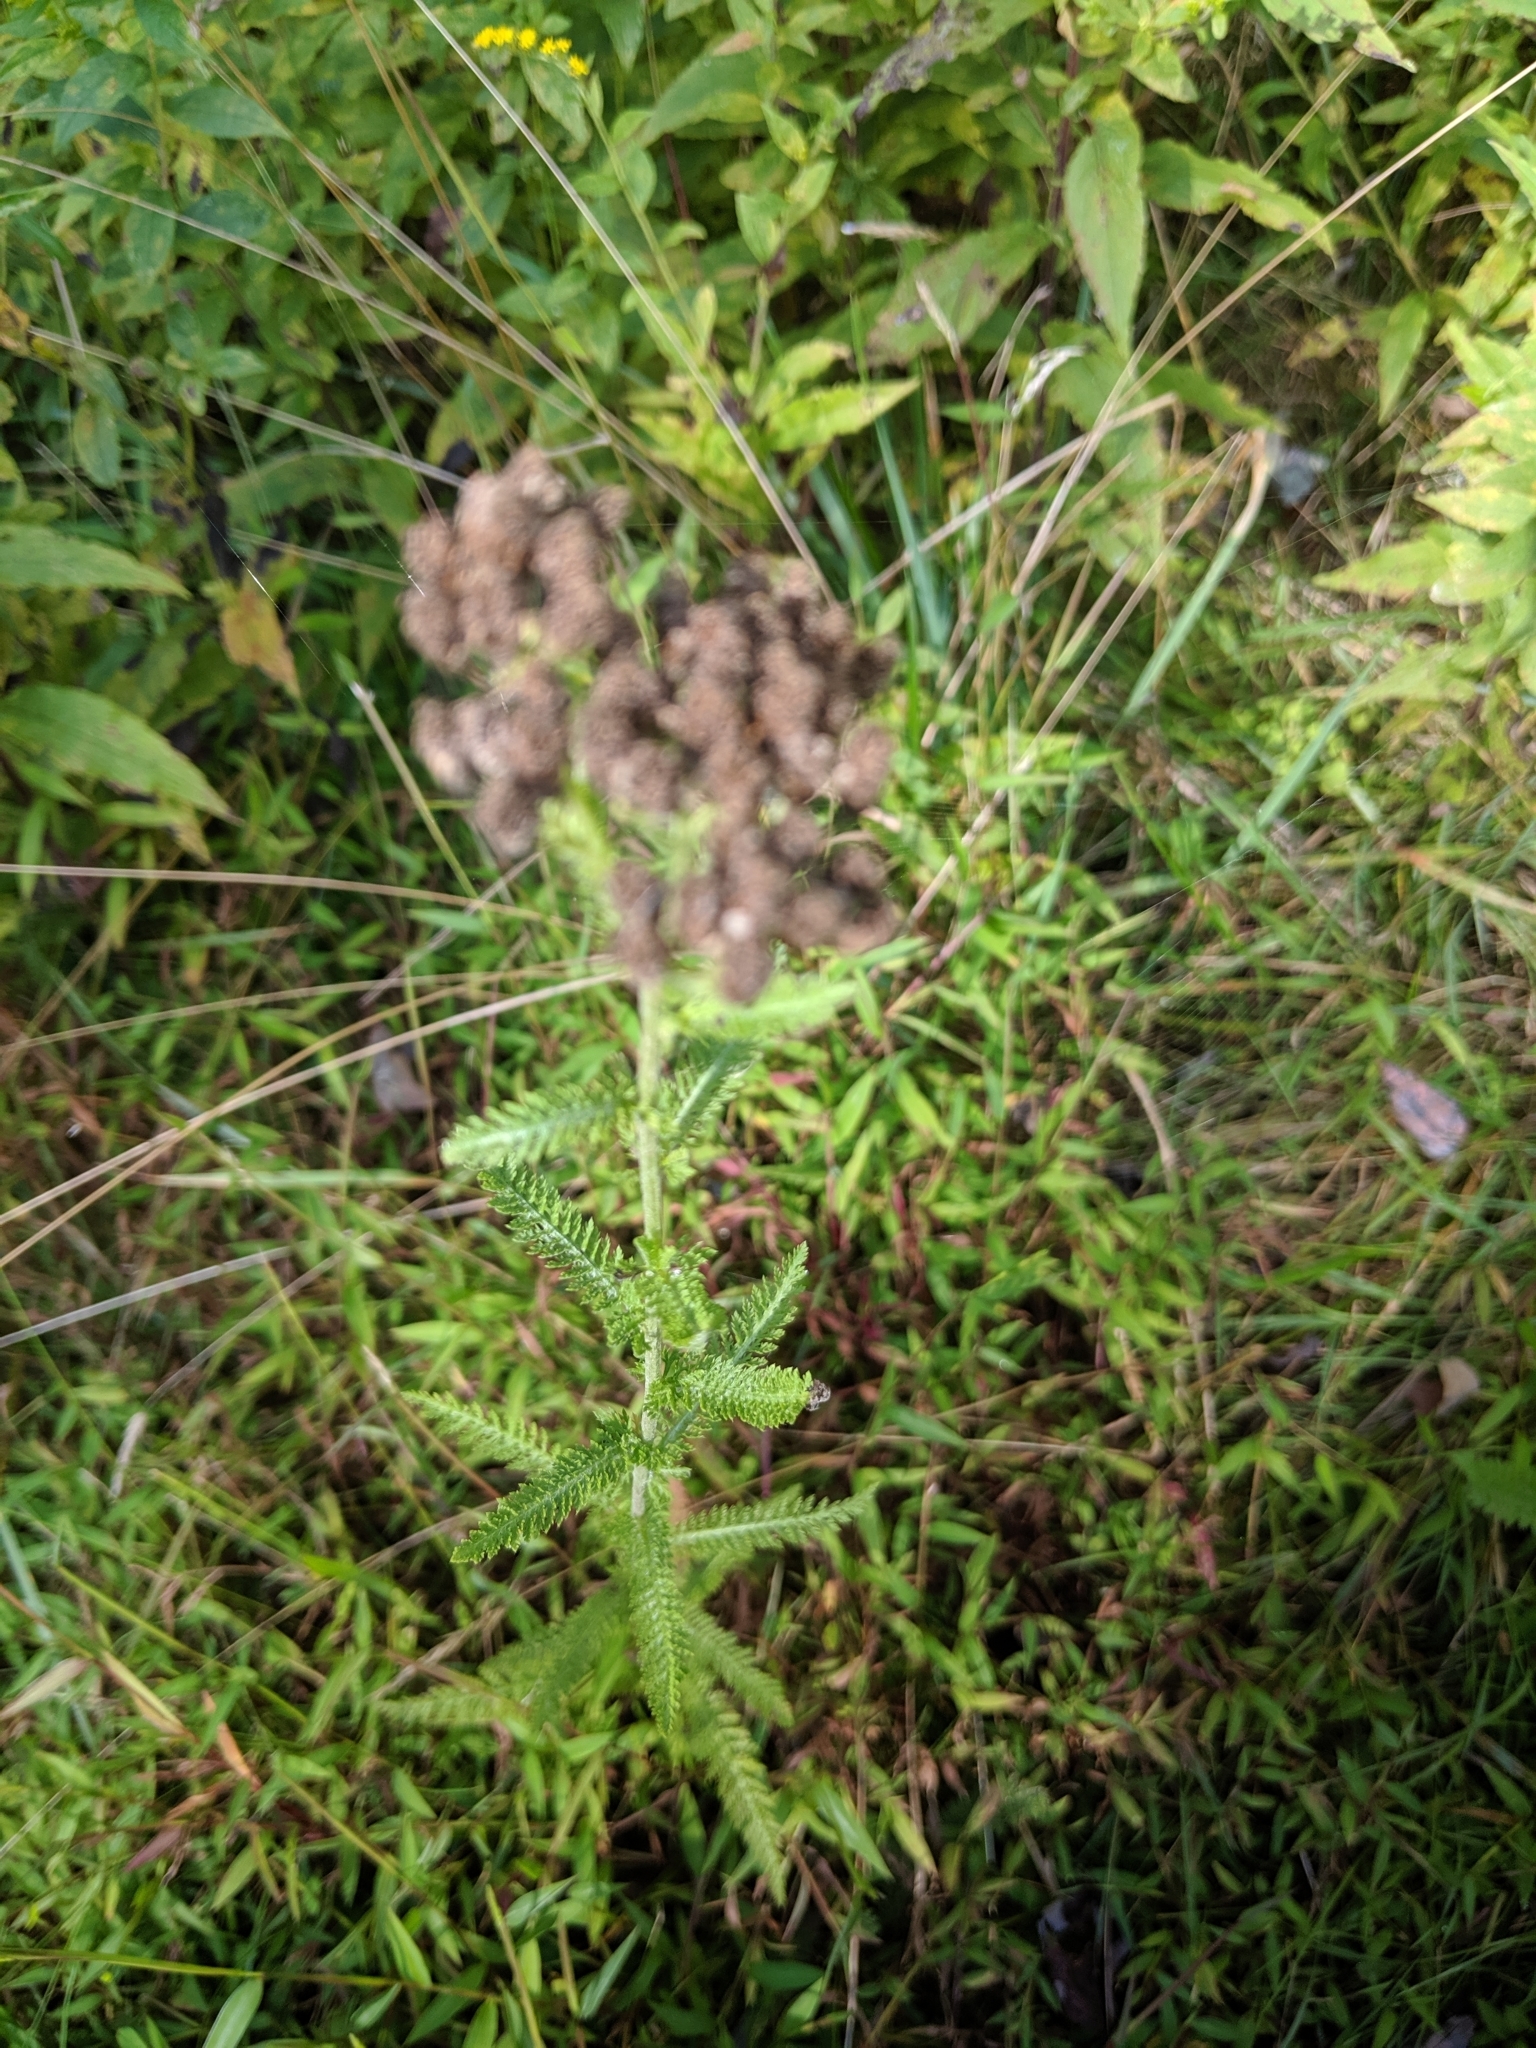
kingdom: Plantae
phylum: Tracheophyta
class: Magnoliopsida
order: Asterales
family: Asteraceae
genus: Achillea
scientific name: Achillea millefolium
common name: Yarrow
